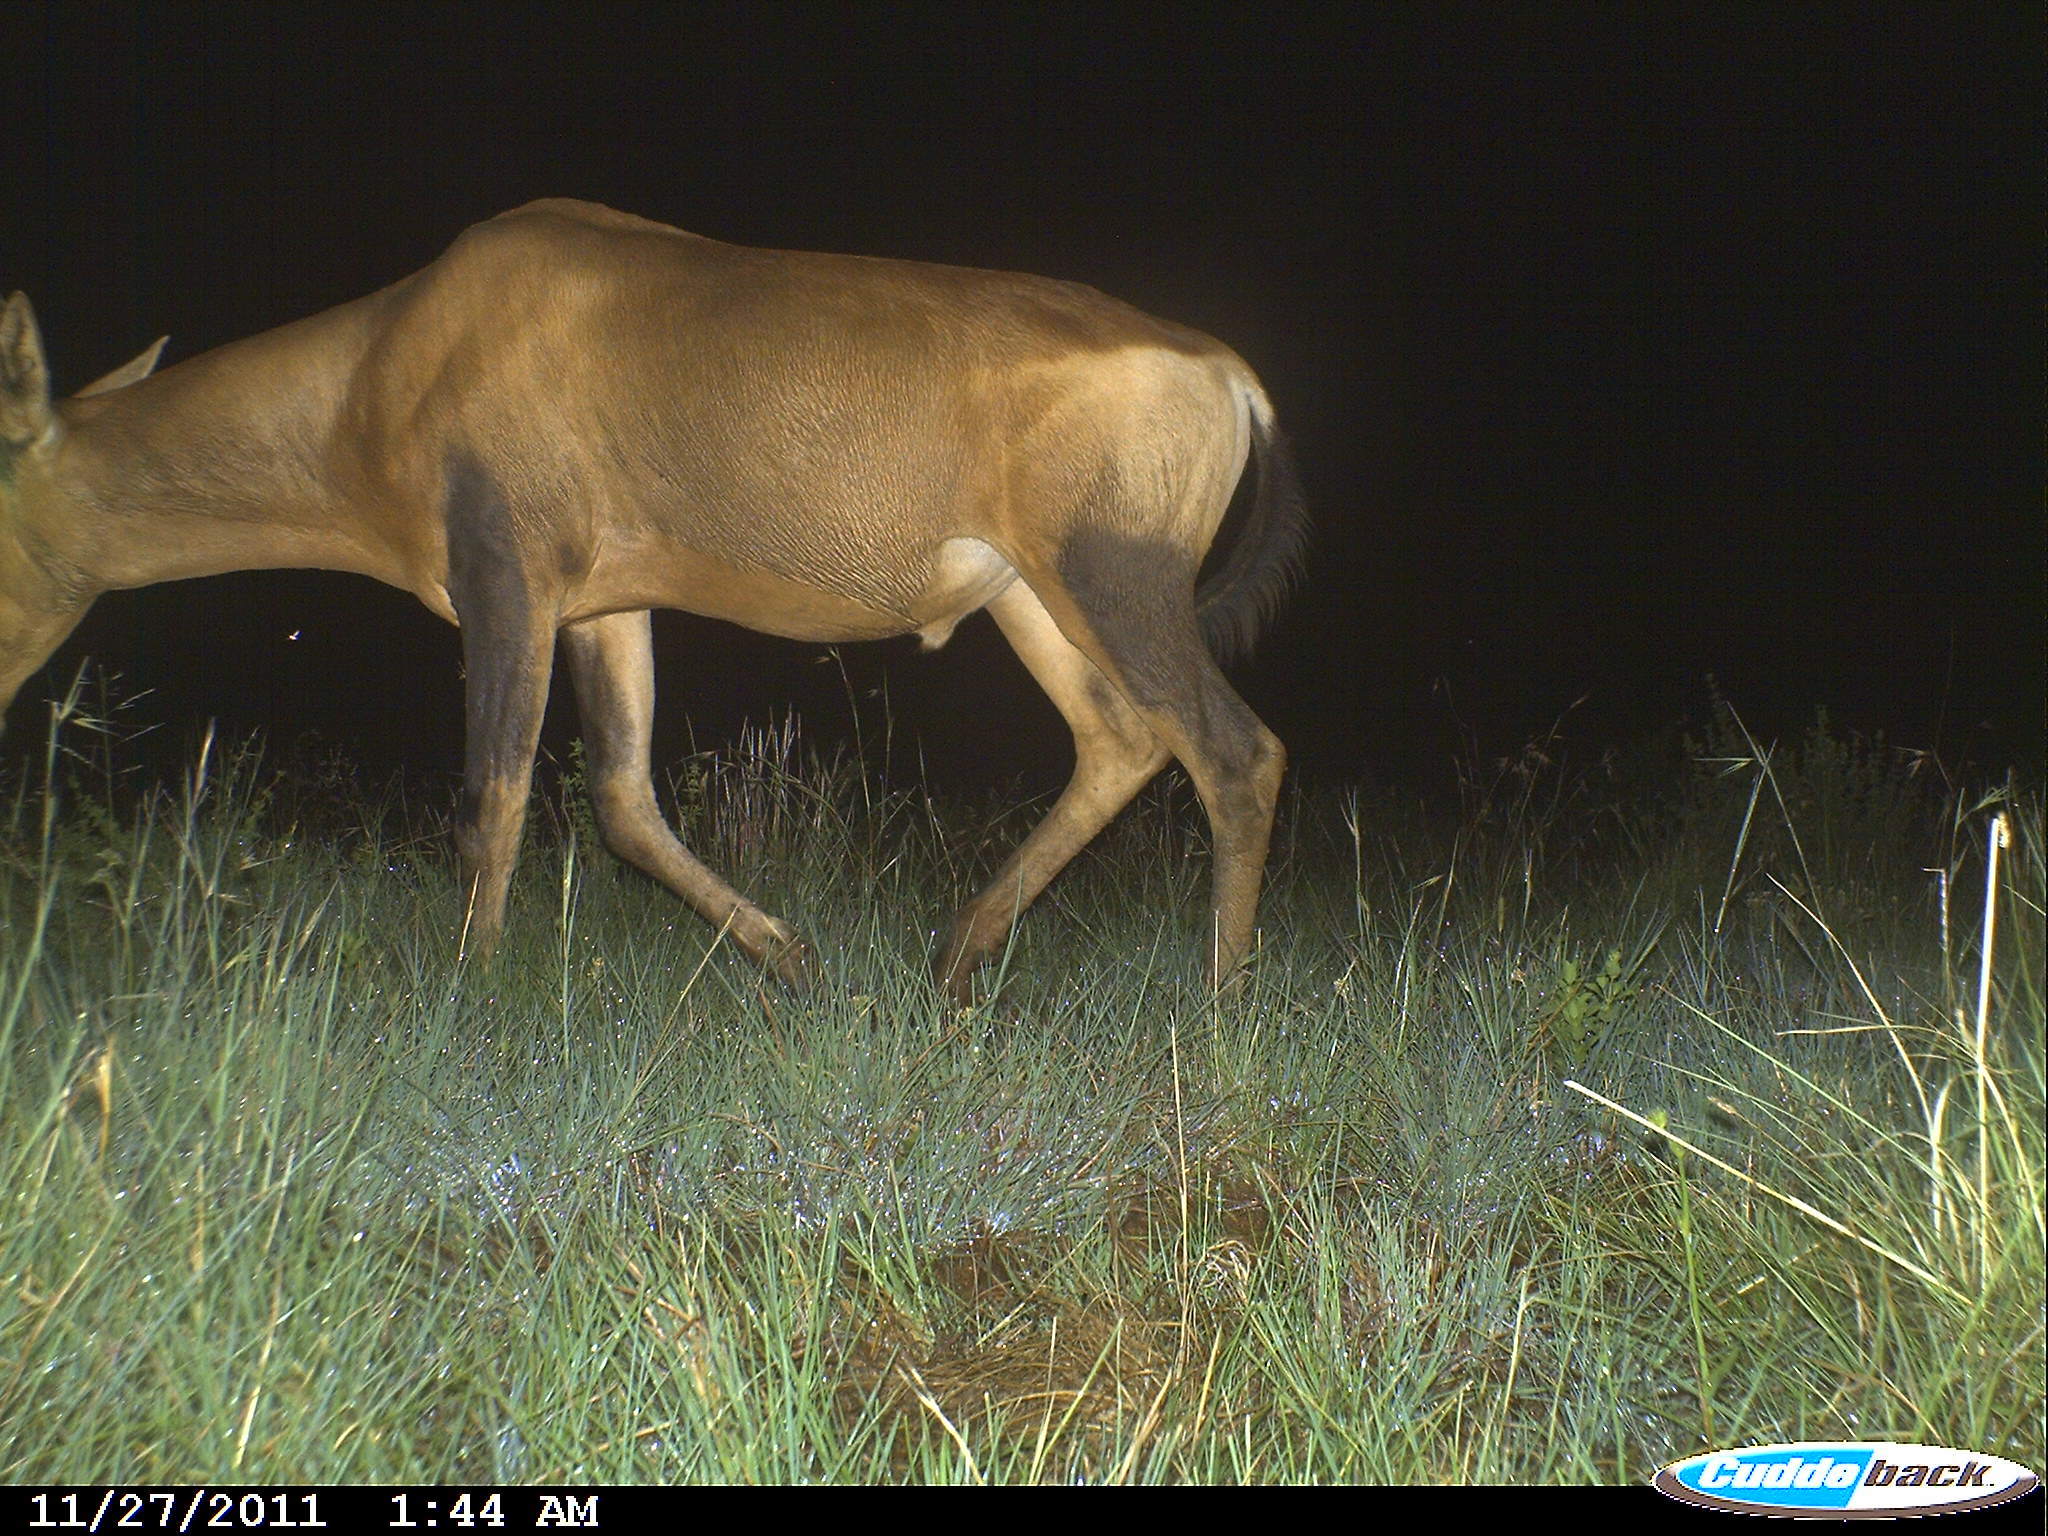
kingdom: Animalia
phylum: Chordata
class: Mammalia
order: Artiodactyla
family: Bovidae
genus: Alcelaphus
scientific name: Alcelaphus caama
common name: Red hartebeest
